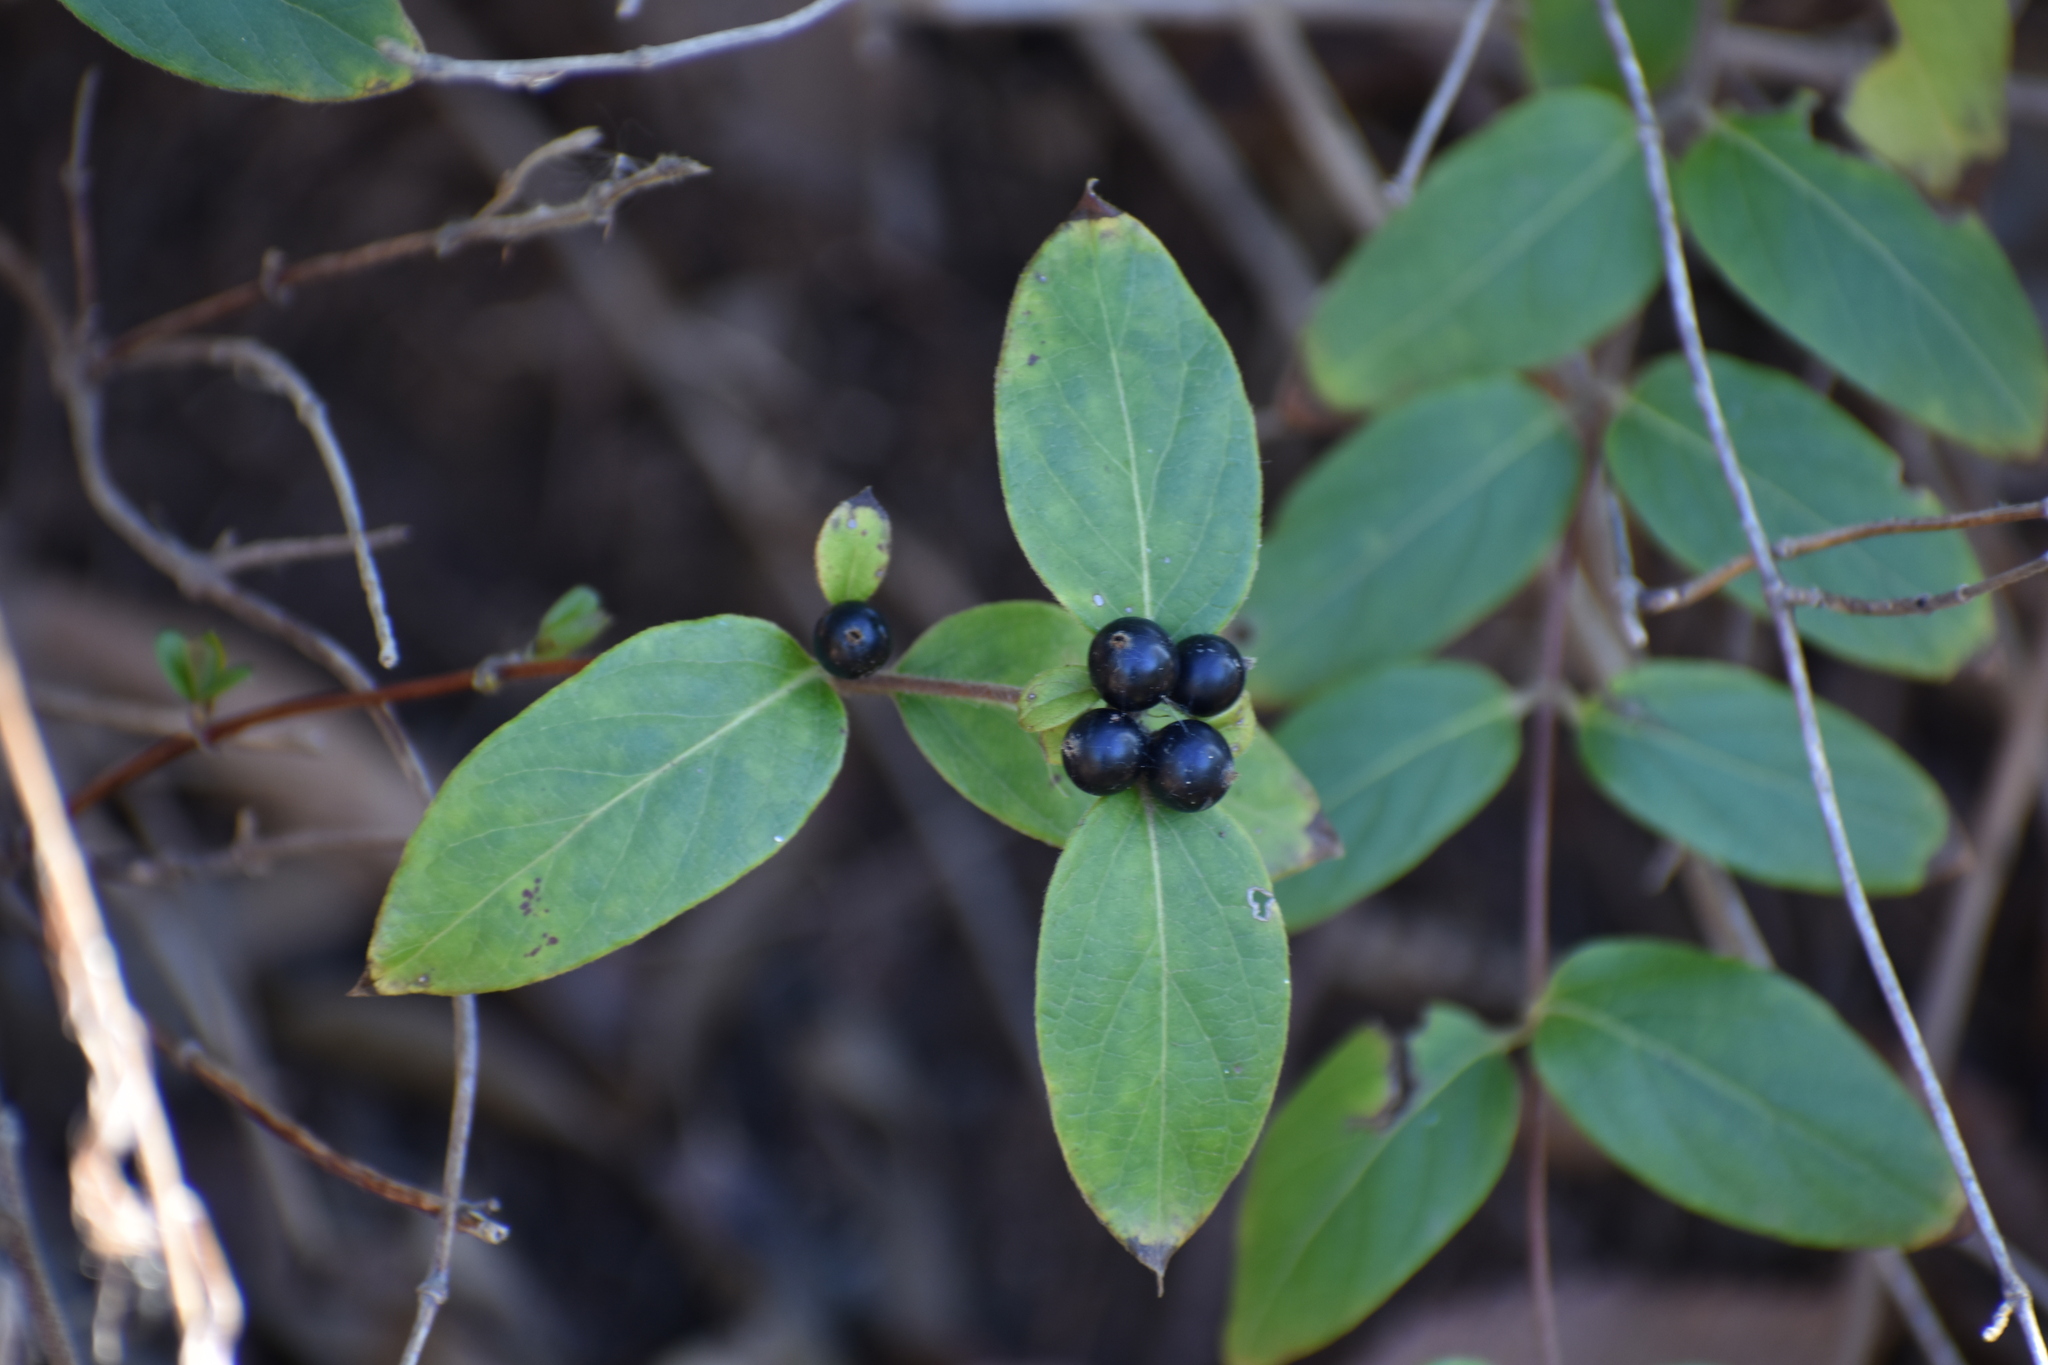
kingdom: Plantae
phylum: Tracheophyta
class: Magnoliopsida
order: Dipsacales
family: Caprifoliaceae
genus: Lonicera
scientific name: Lonicera japonica
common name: Japanese honeysuckle
